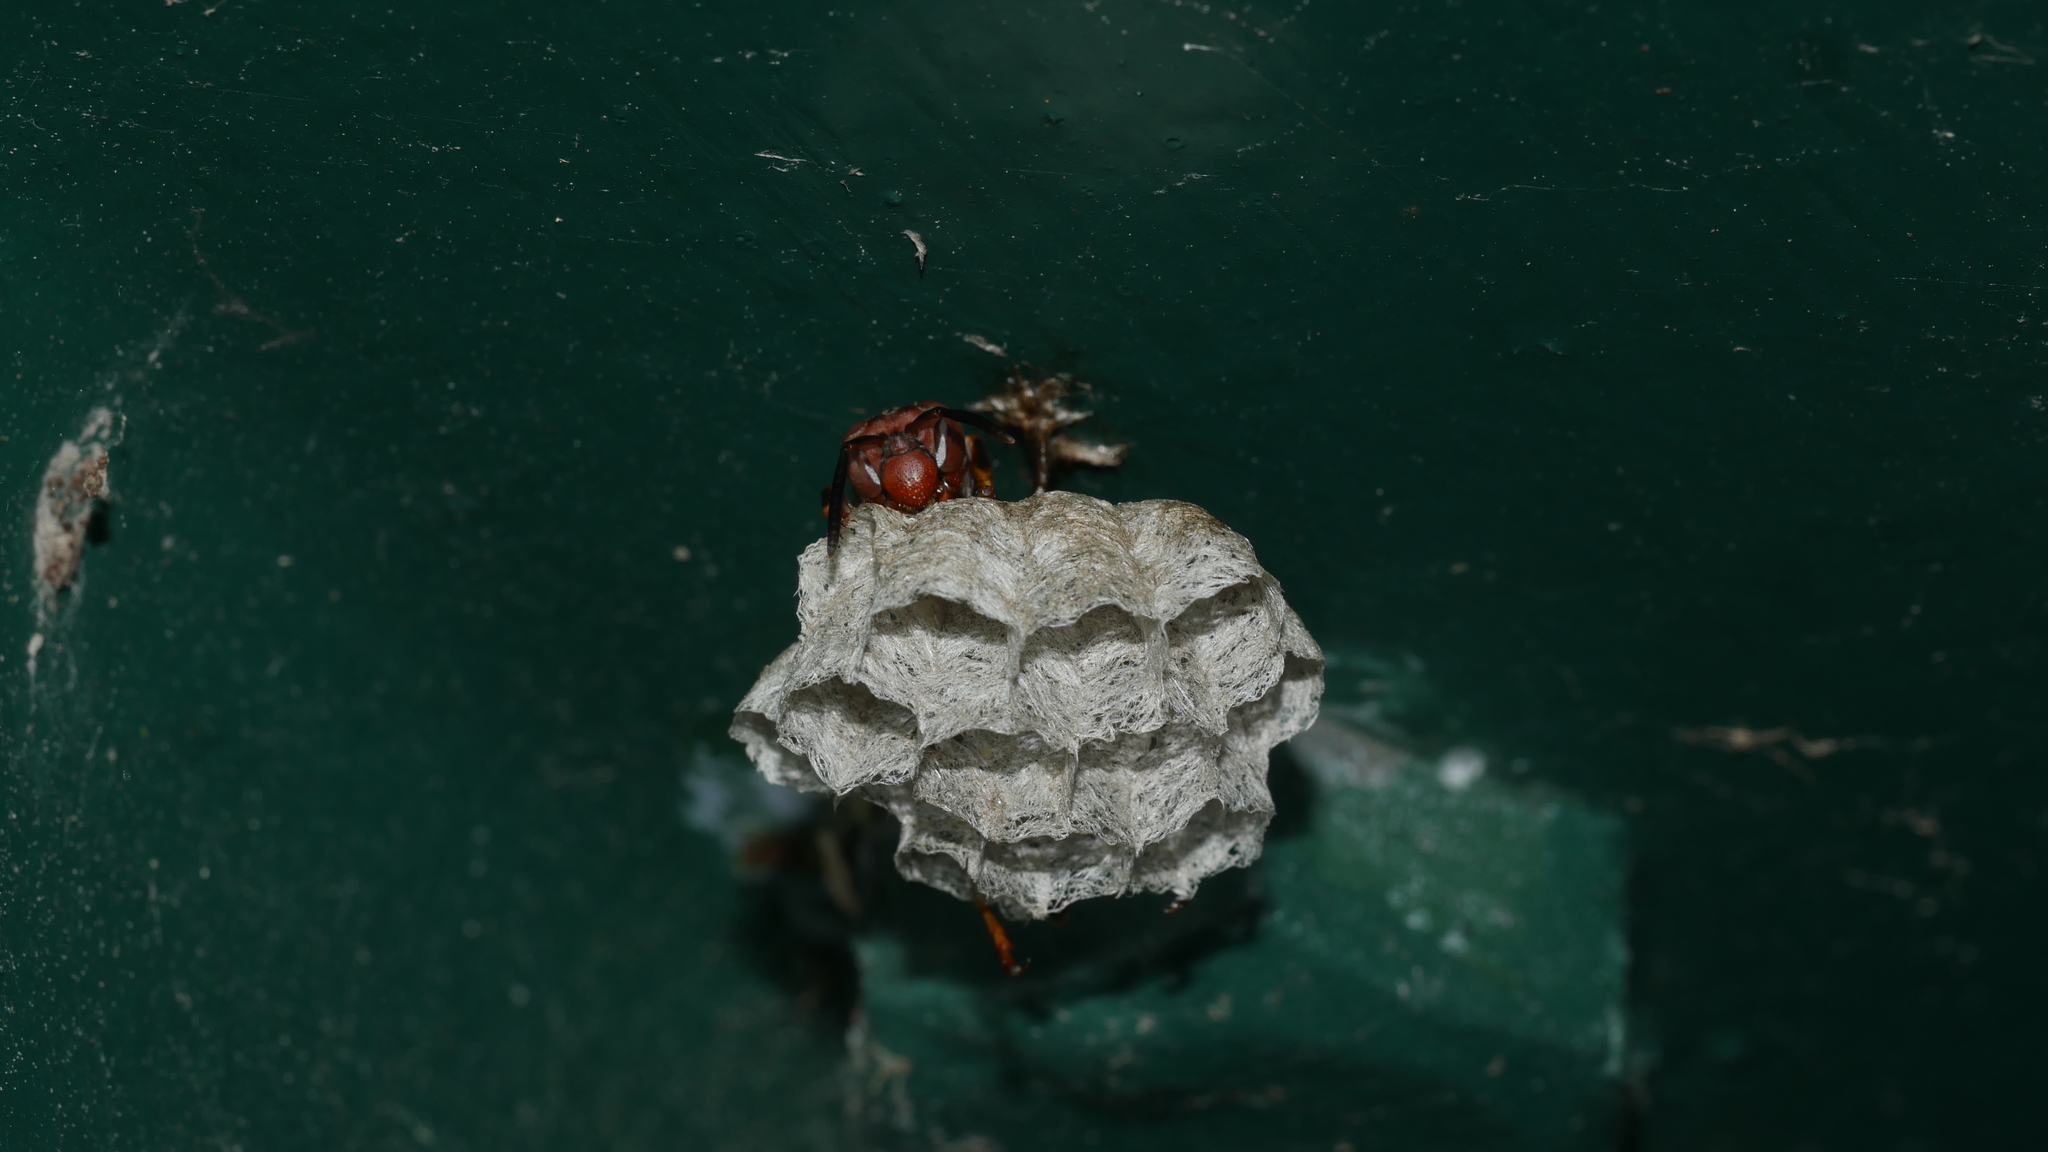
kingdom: Animalia
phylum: Arthropoda
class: Insecta
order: Hymenoptera
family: Vespidae
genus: Fuscopolistes
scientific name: Fuscopolistes
